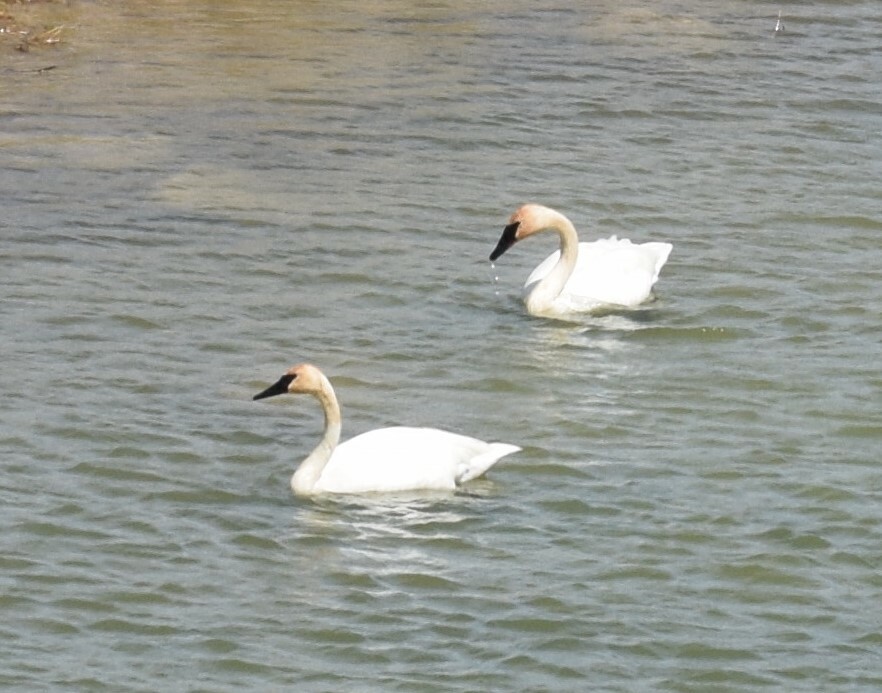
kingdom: Animalia
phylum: Chordata
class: Aves
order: Anseriformes
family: Anatidae
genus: Cygnus
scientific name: Cygnus buccinator
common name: Trumpeter swan
